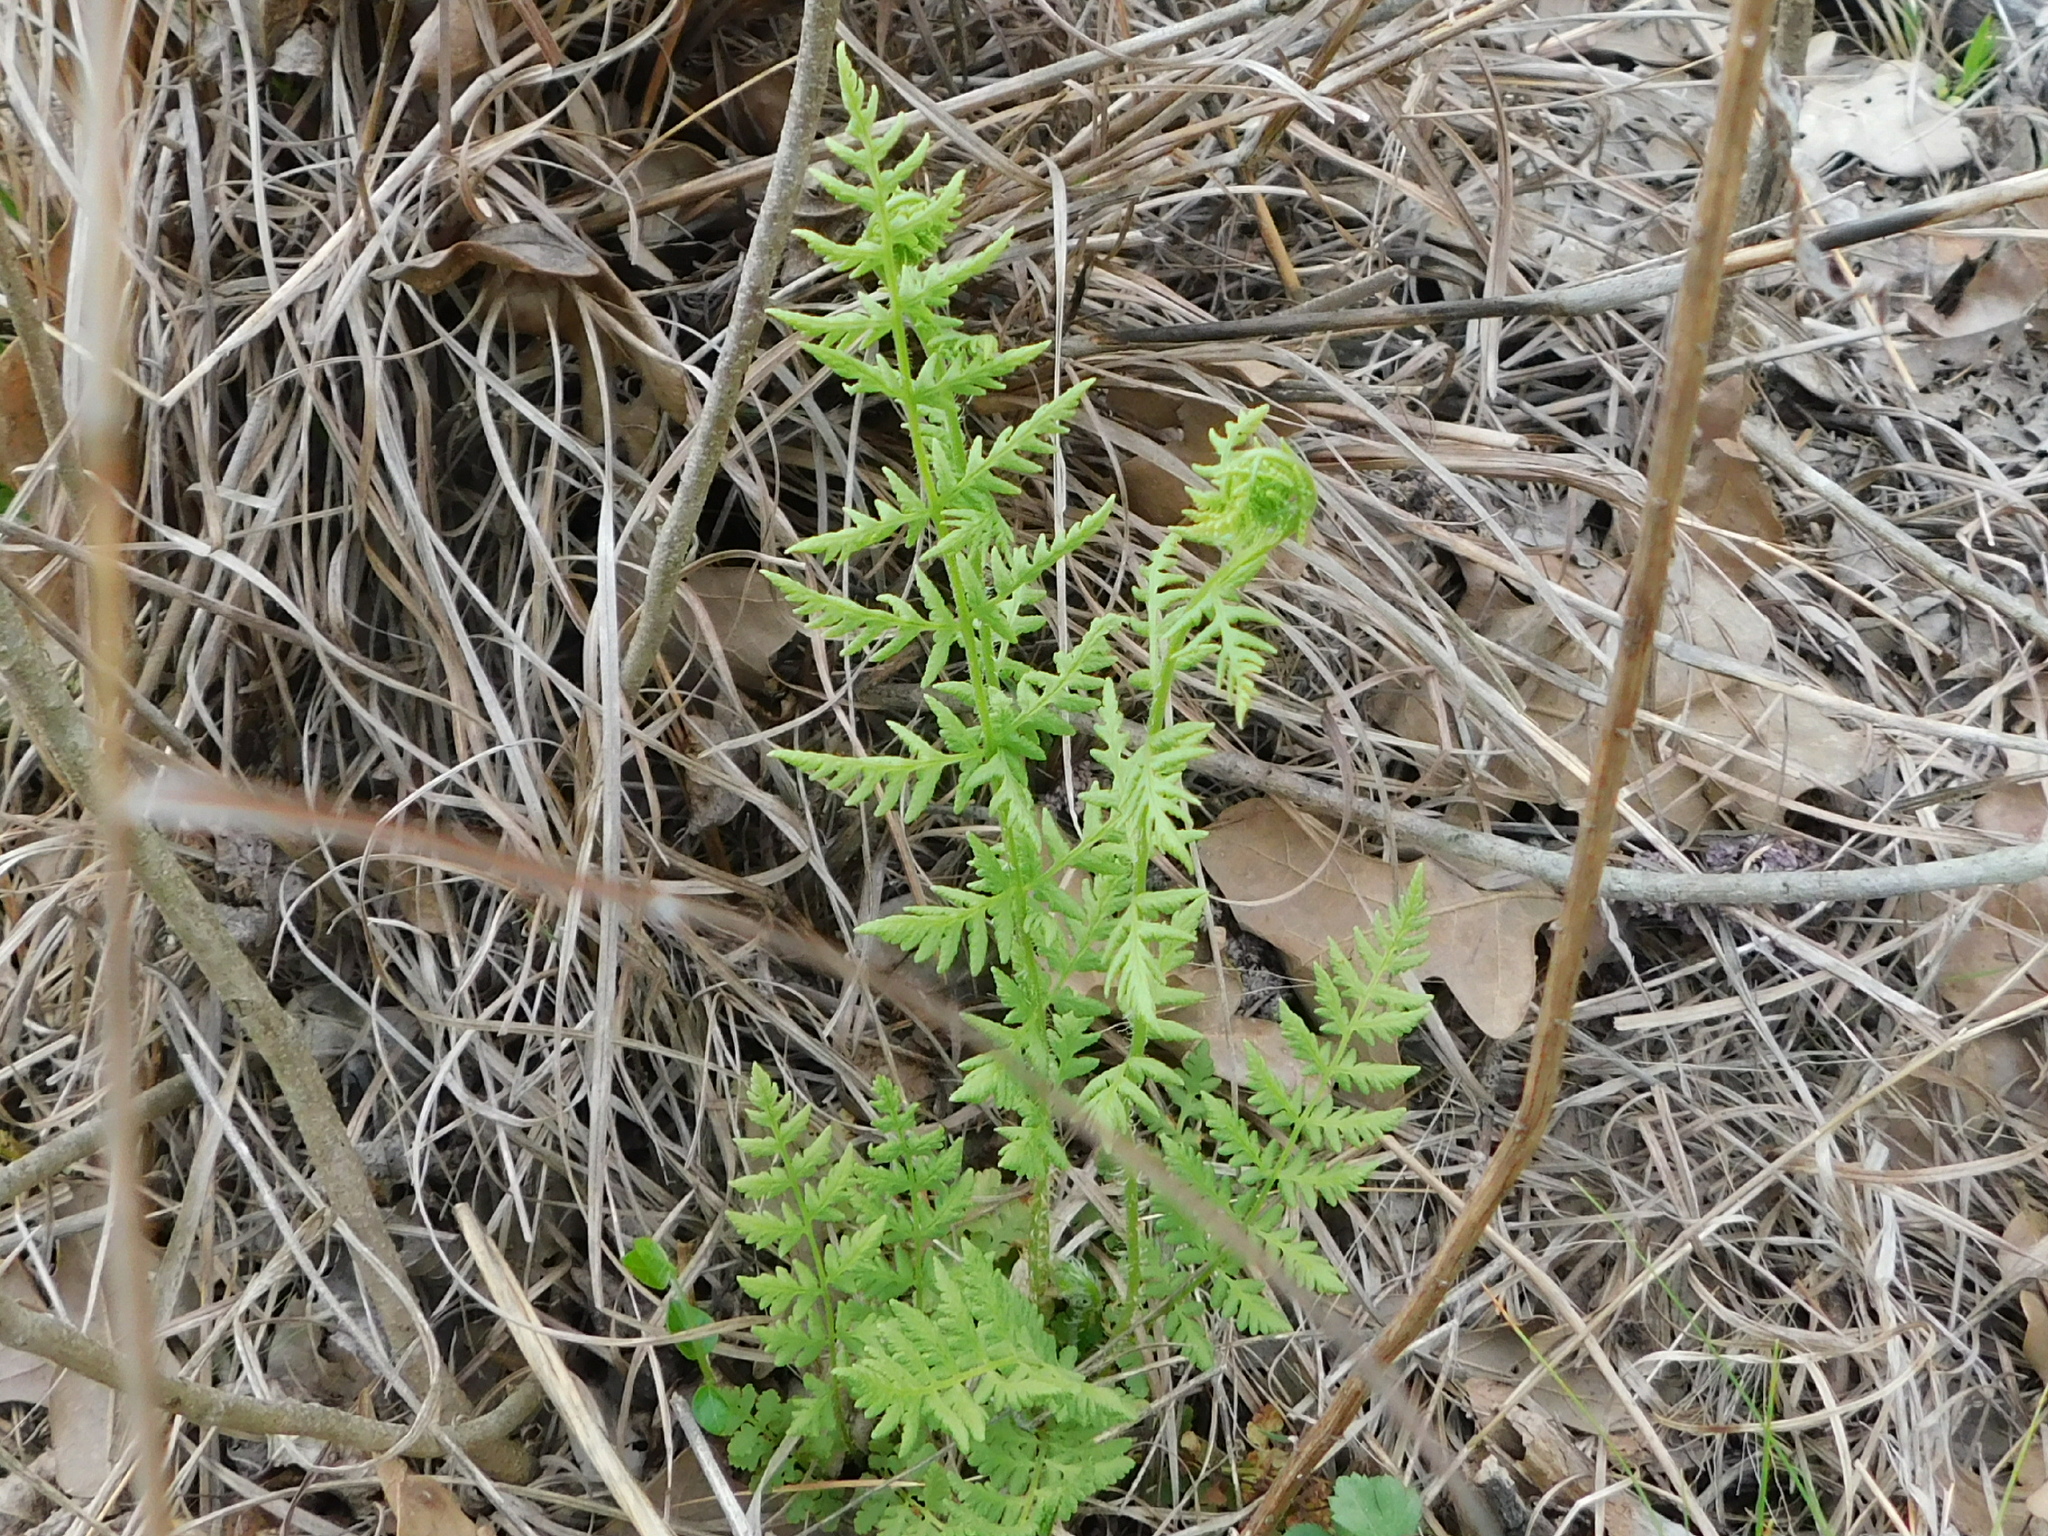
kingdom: Plantae
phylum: Tracheophyta
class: Polypodiopsida
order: Polypodiales
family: Woodsiaceae
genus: Physematium
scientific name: Physematium obtusum
